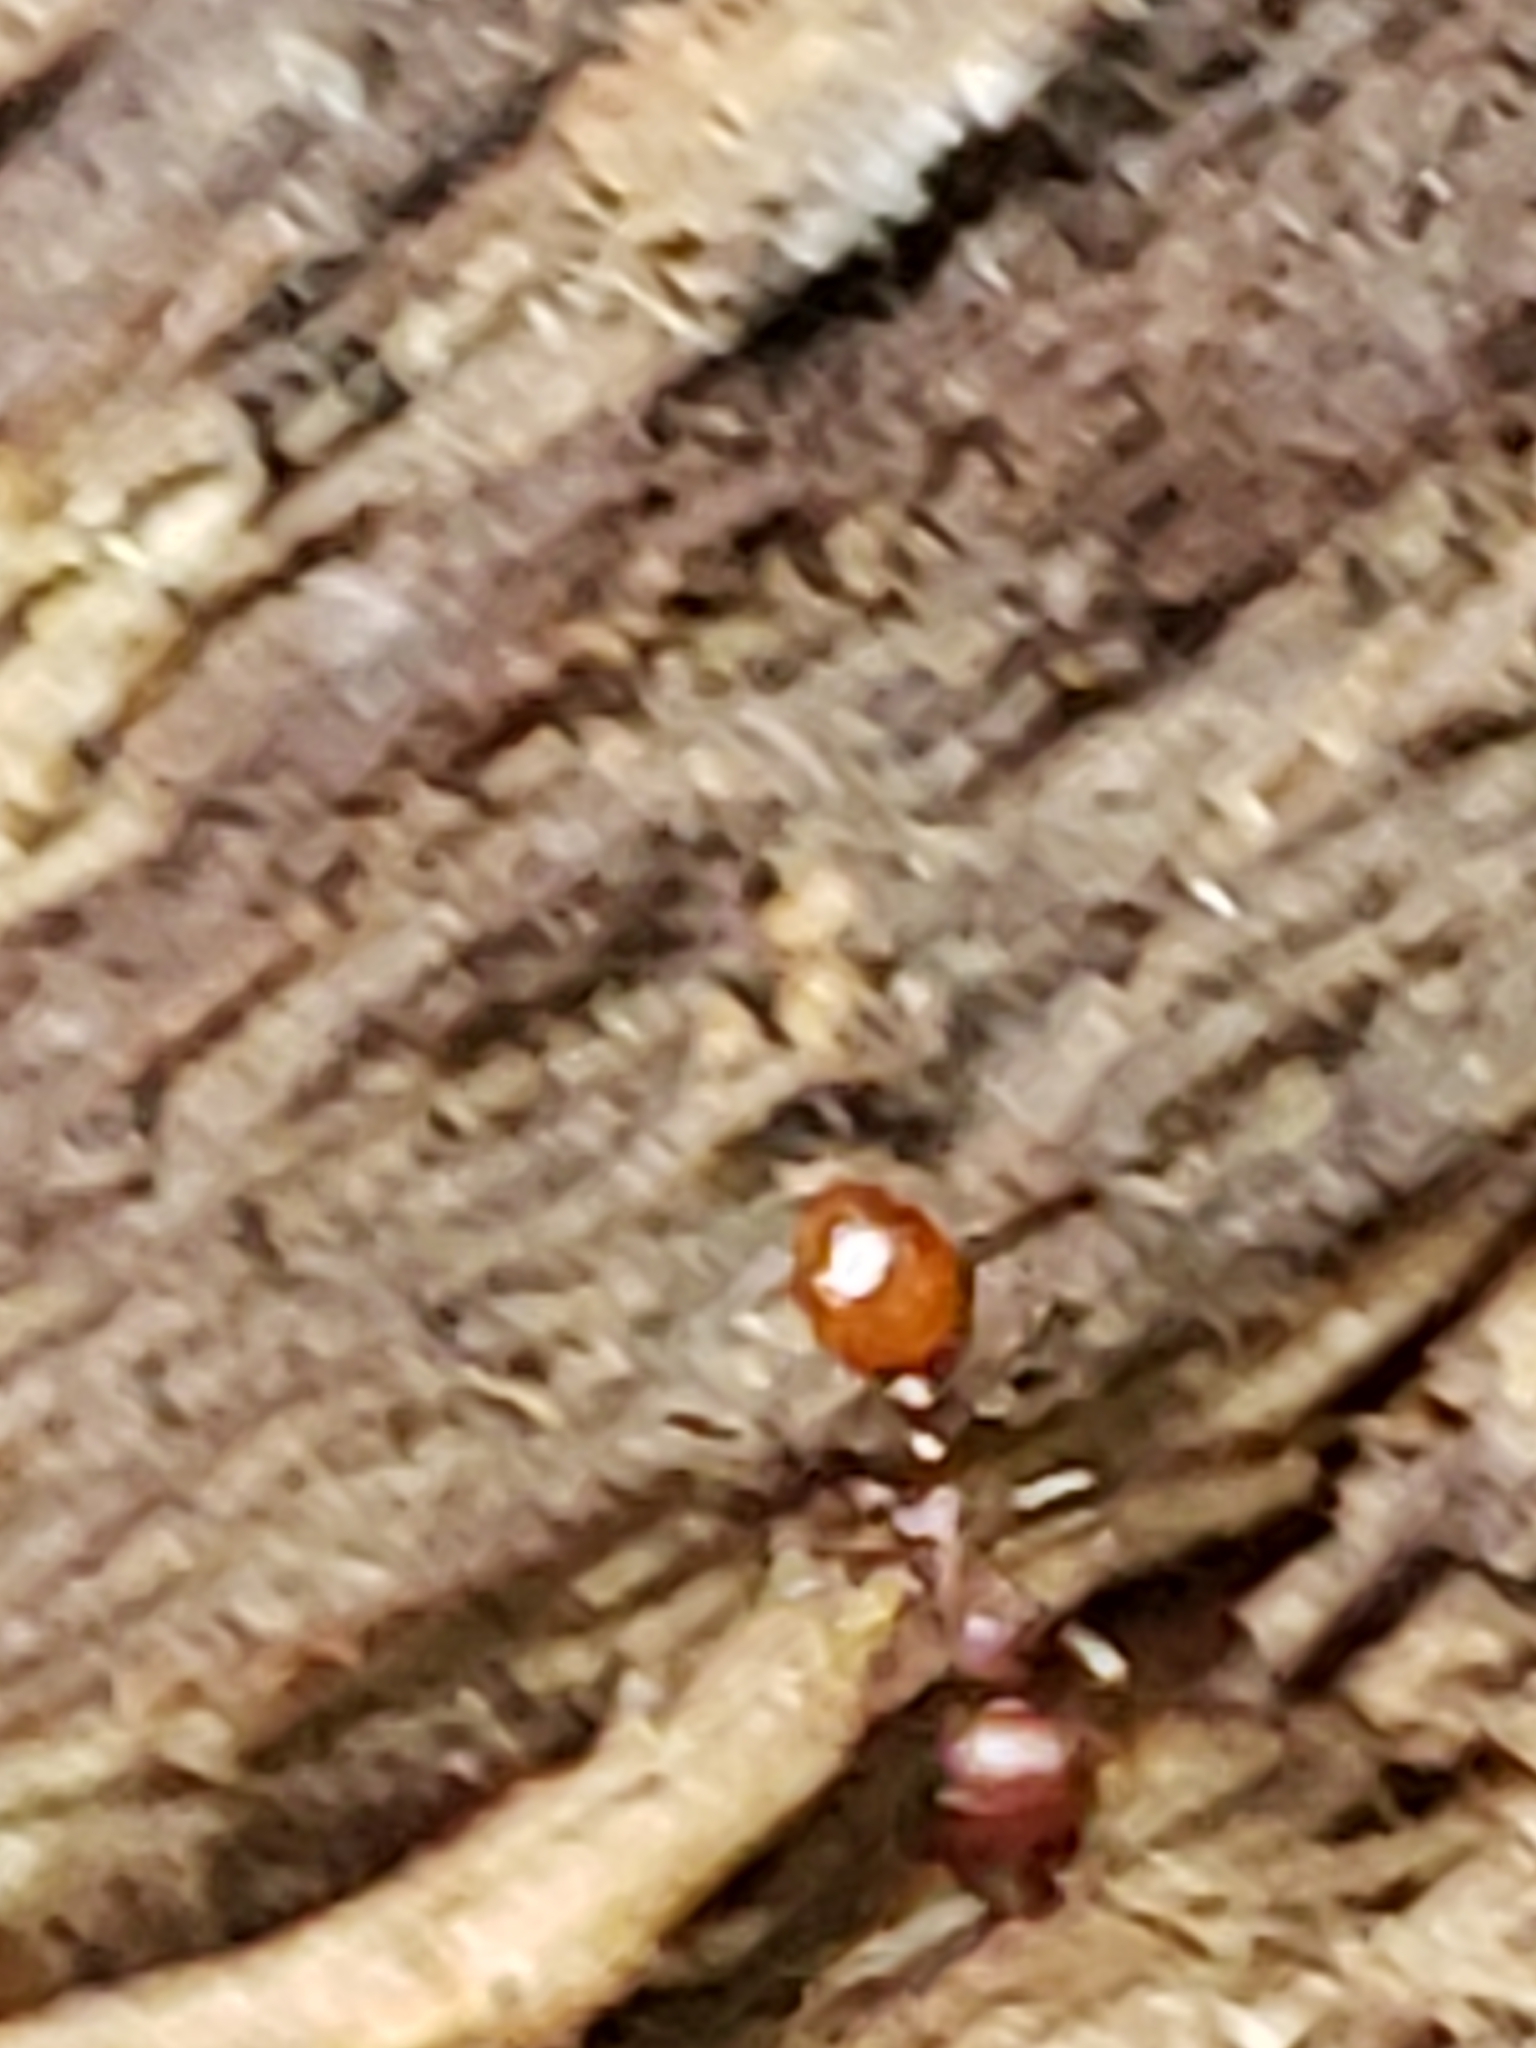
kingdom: Animalia
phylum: Arthropoda
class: Insecta
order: Hymenoptera
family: Formicidae
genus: Aphaenogaster
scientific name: Aphaenogaster tennesseensis
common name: Tennessee thread-waisted ant
